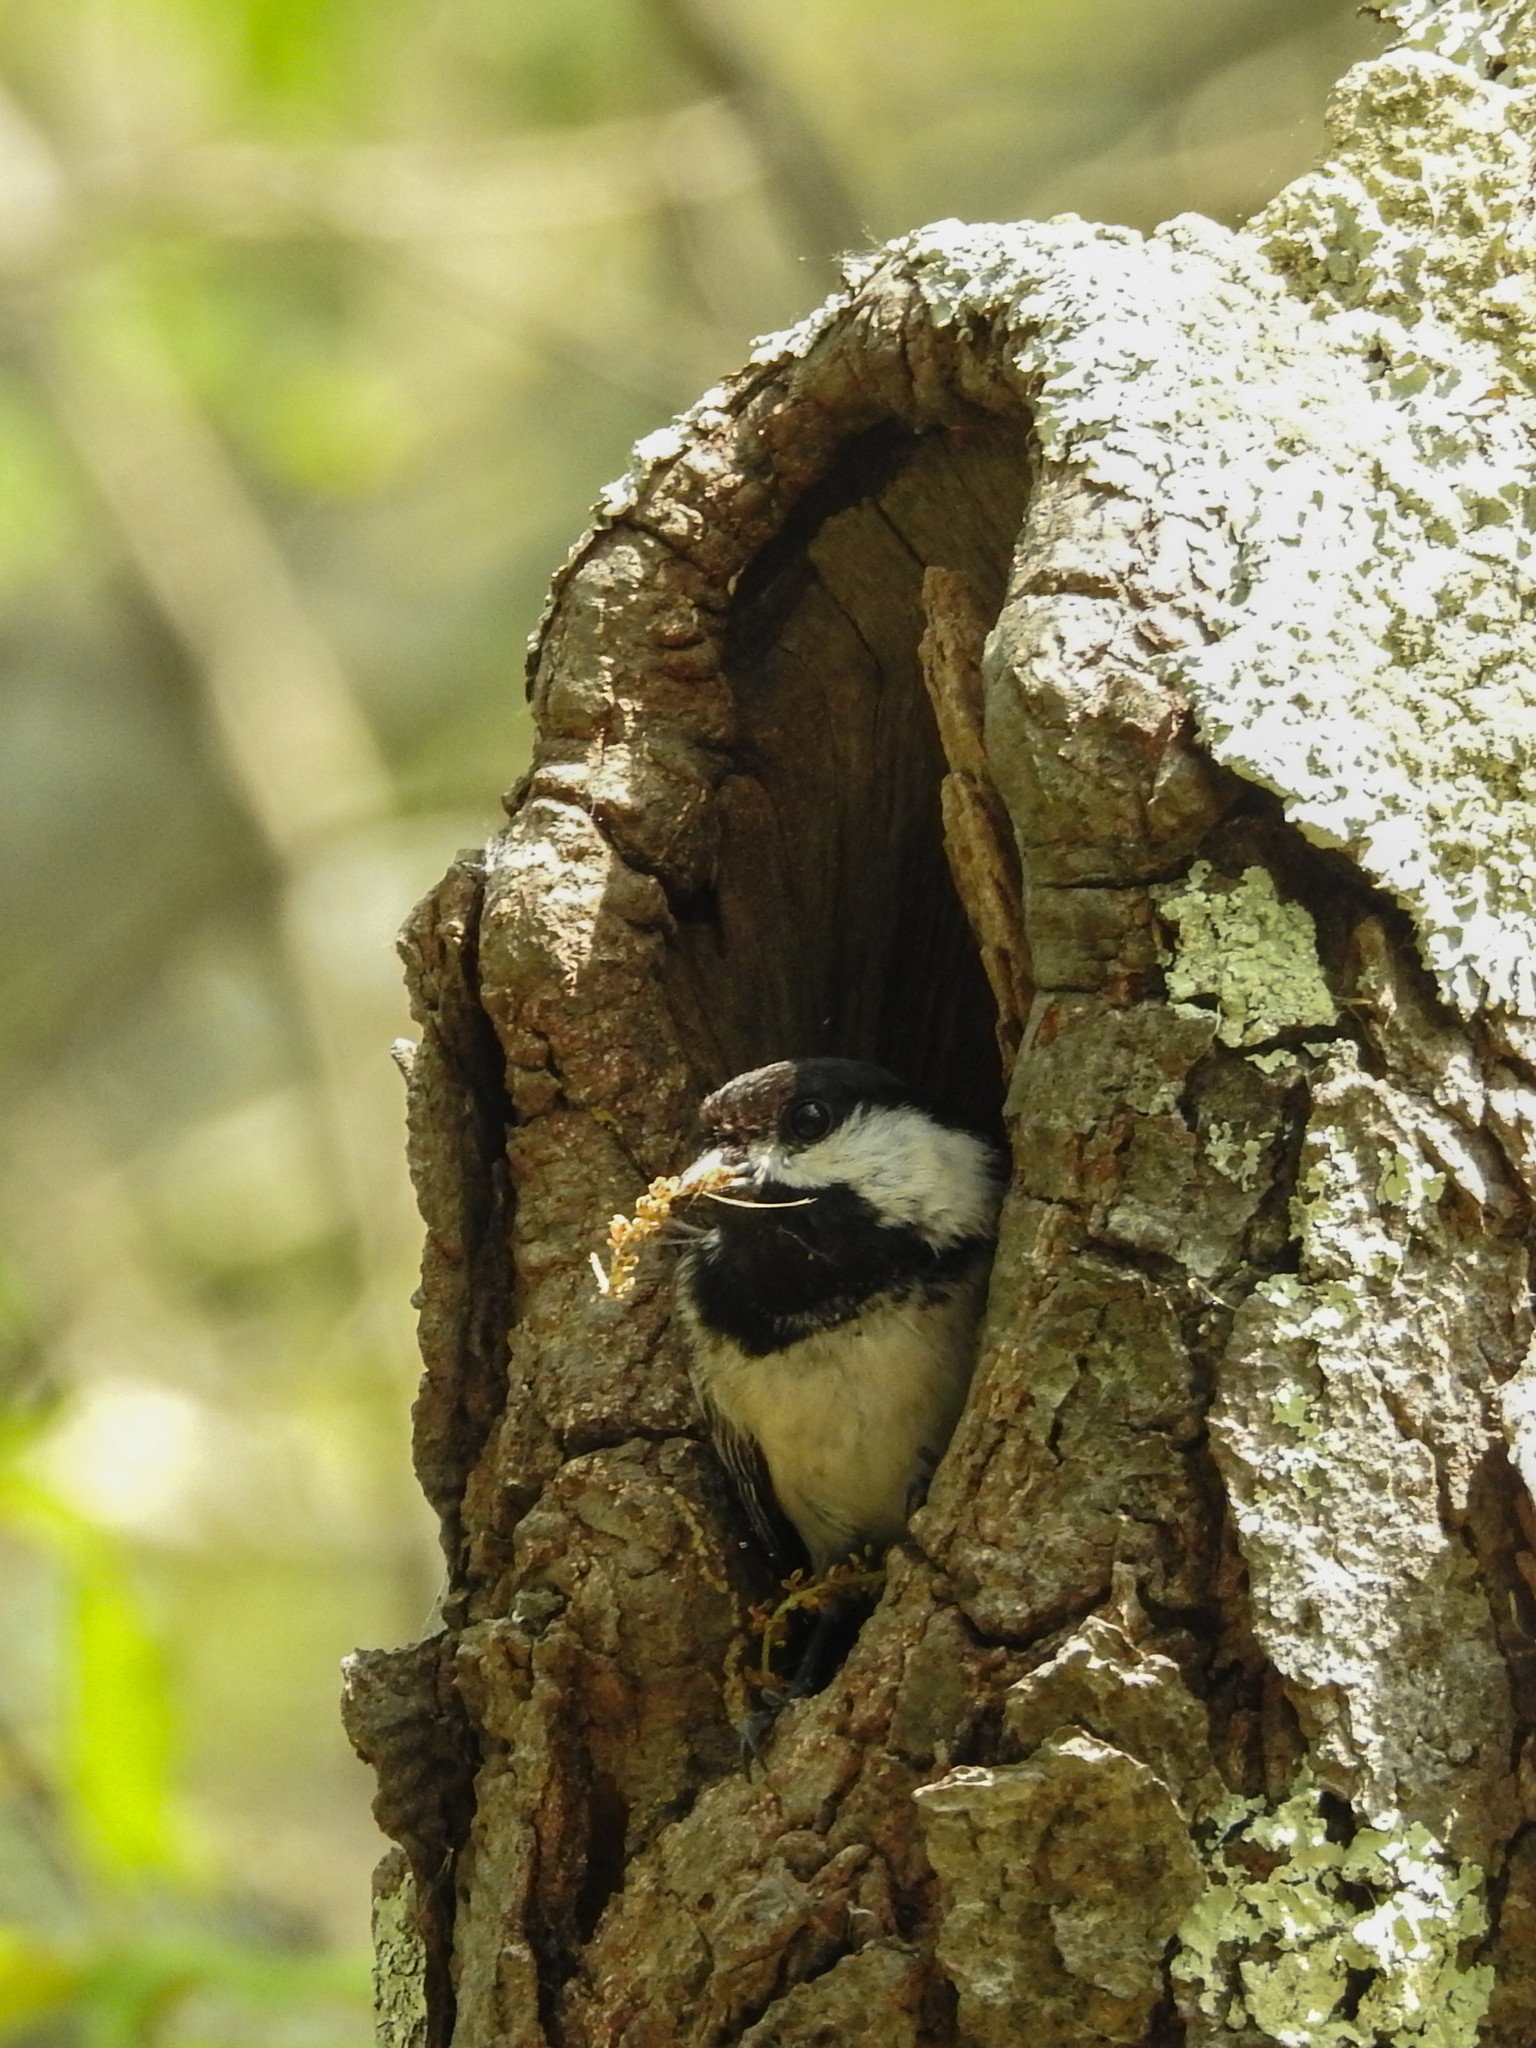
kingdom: Animalia
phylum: Chordata
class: Aves
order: Passeriformes
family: Paridae
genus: Poecile
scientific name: Poecile atricapillus
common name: Black-capped chickadee
